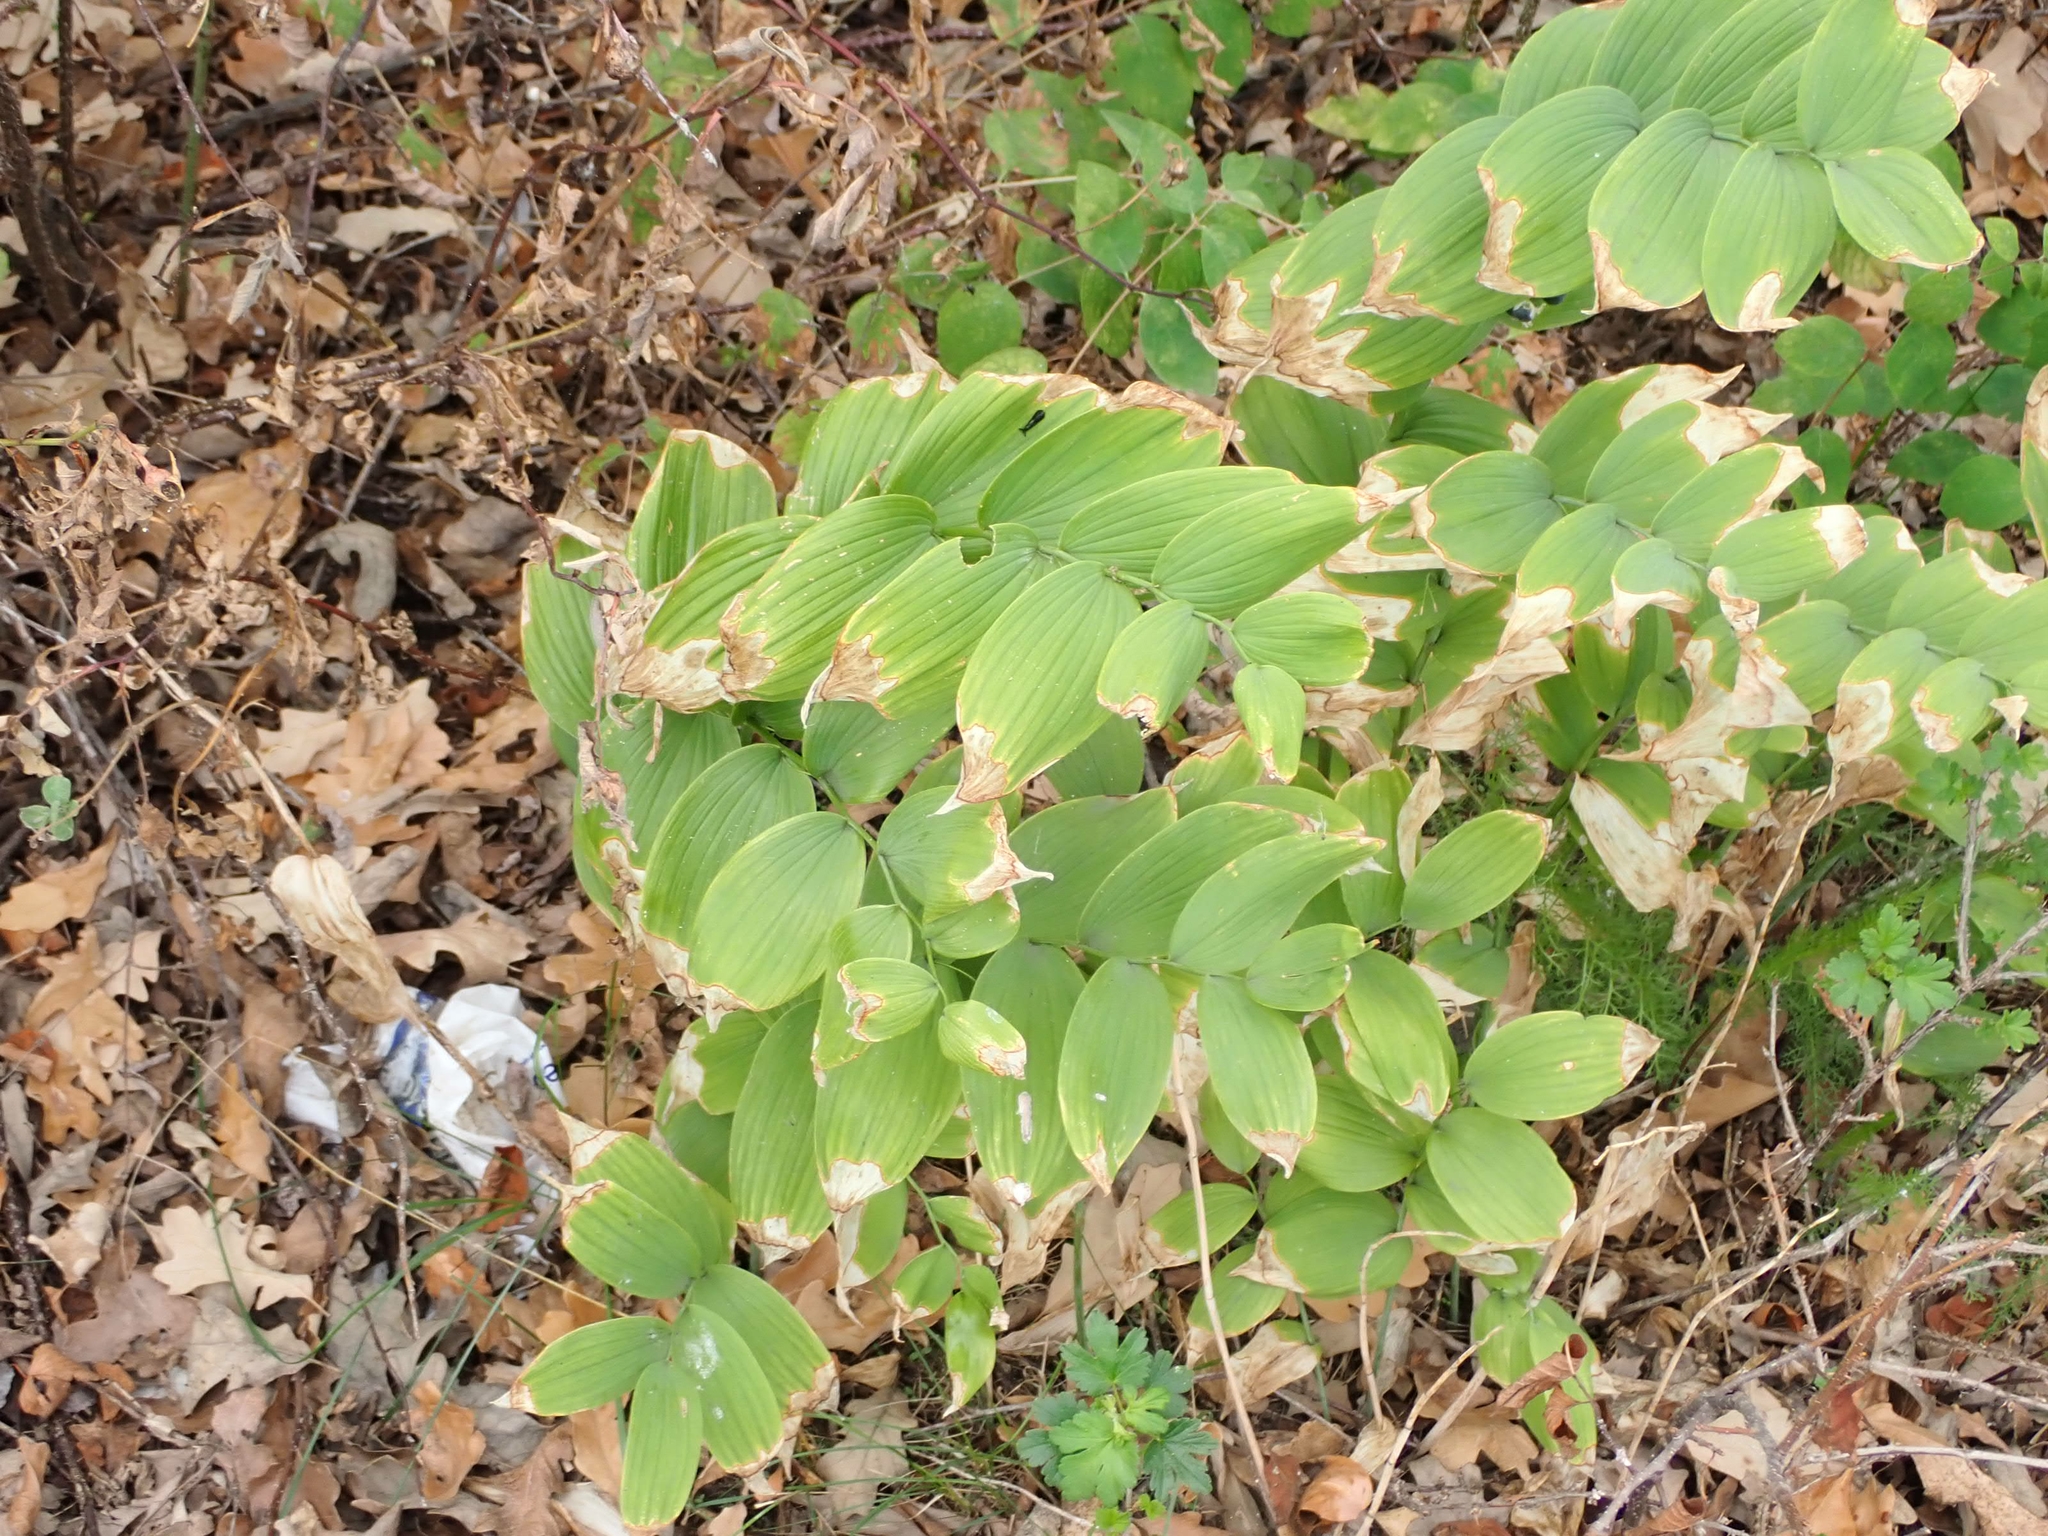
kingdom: Plantae
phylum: Tracheophyta
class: Liliopsida
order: Asparagales
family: Asparagaceae
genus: Polygonatum
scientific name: Polygonatum biflorum
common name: American solomon's-seal
